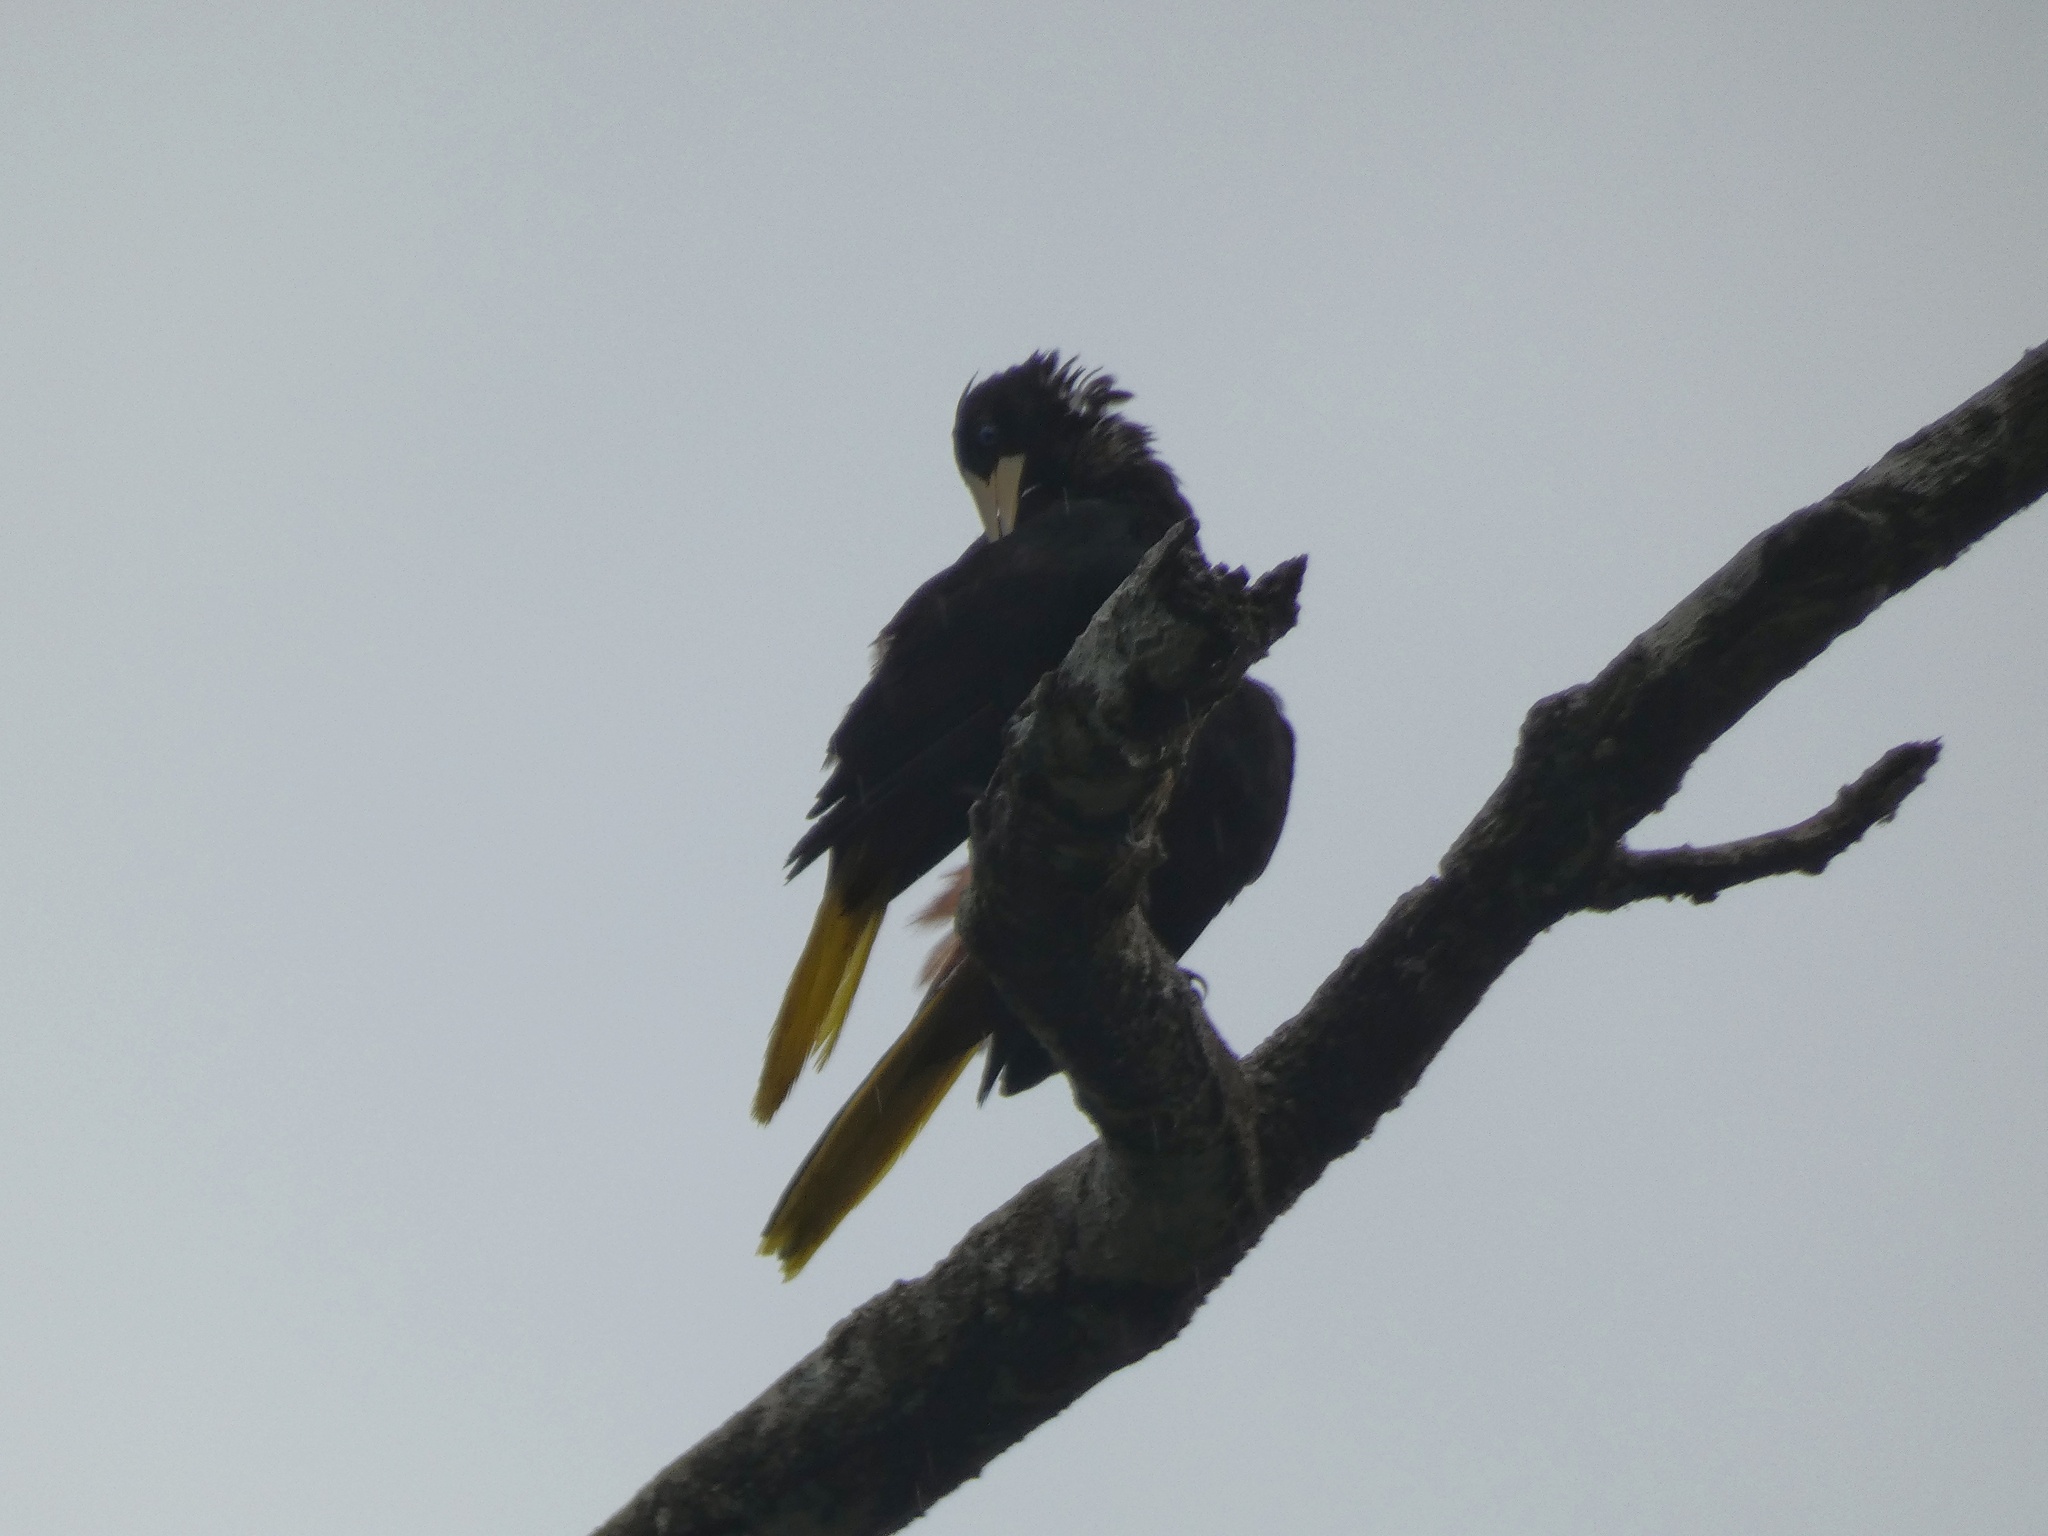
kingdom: Animalia
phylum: Chordata
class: Aves
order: Passeriformes
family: Icteridae
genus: Psarocolius
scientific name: Psarocolius decumanus
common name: Crested oropendola
